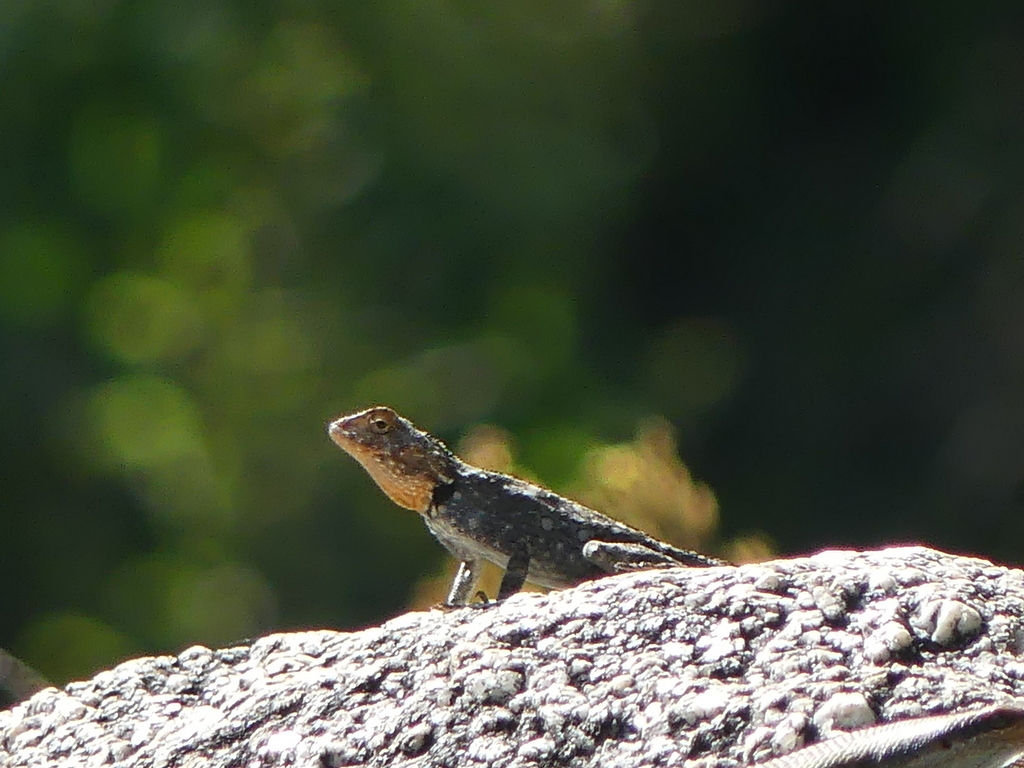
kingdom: Animalia
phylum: Chordata
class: Squamata
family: Agamidae
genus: Agama
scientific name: Agama kirkii
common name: Kirk's rock agama
